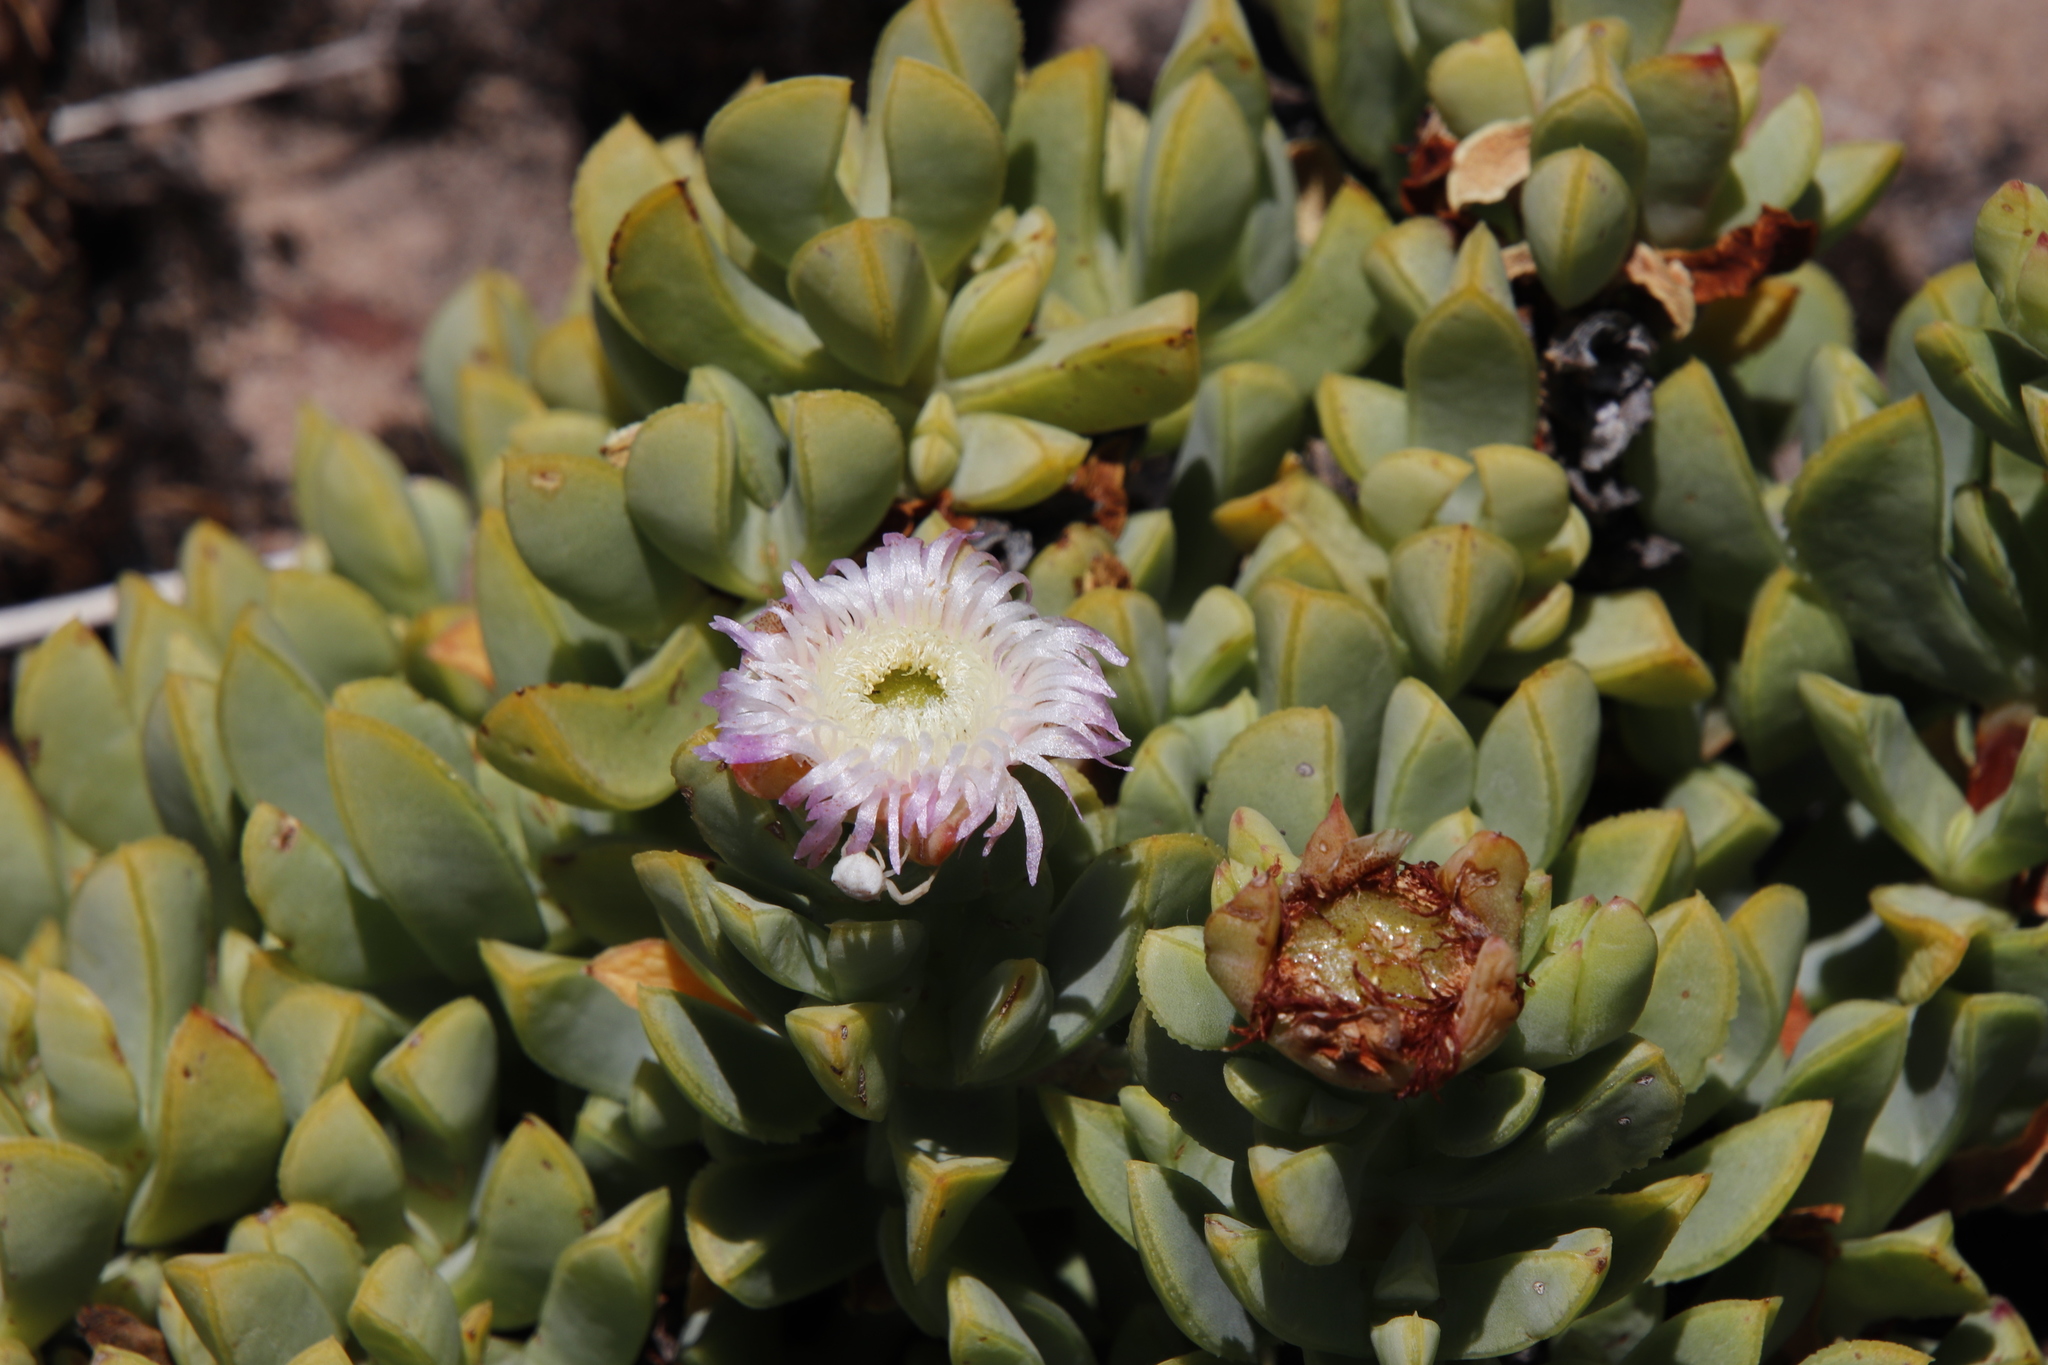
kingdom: Plantae
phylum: Tracheophyta
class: Magnoliopsida
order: Caryophyllales
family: Aizoaceae
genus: Erepsia
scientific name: Erepsia heteropetala
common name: Lesser sea-fig
